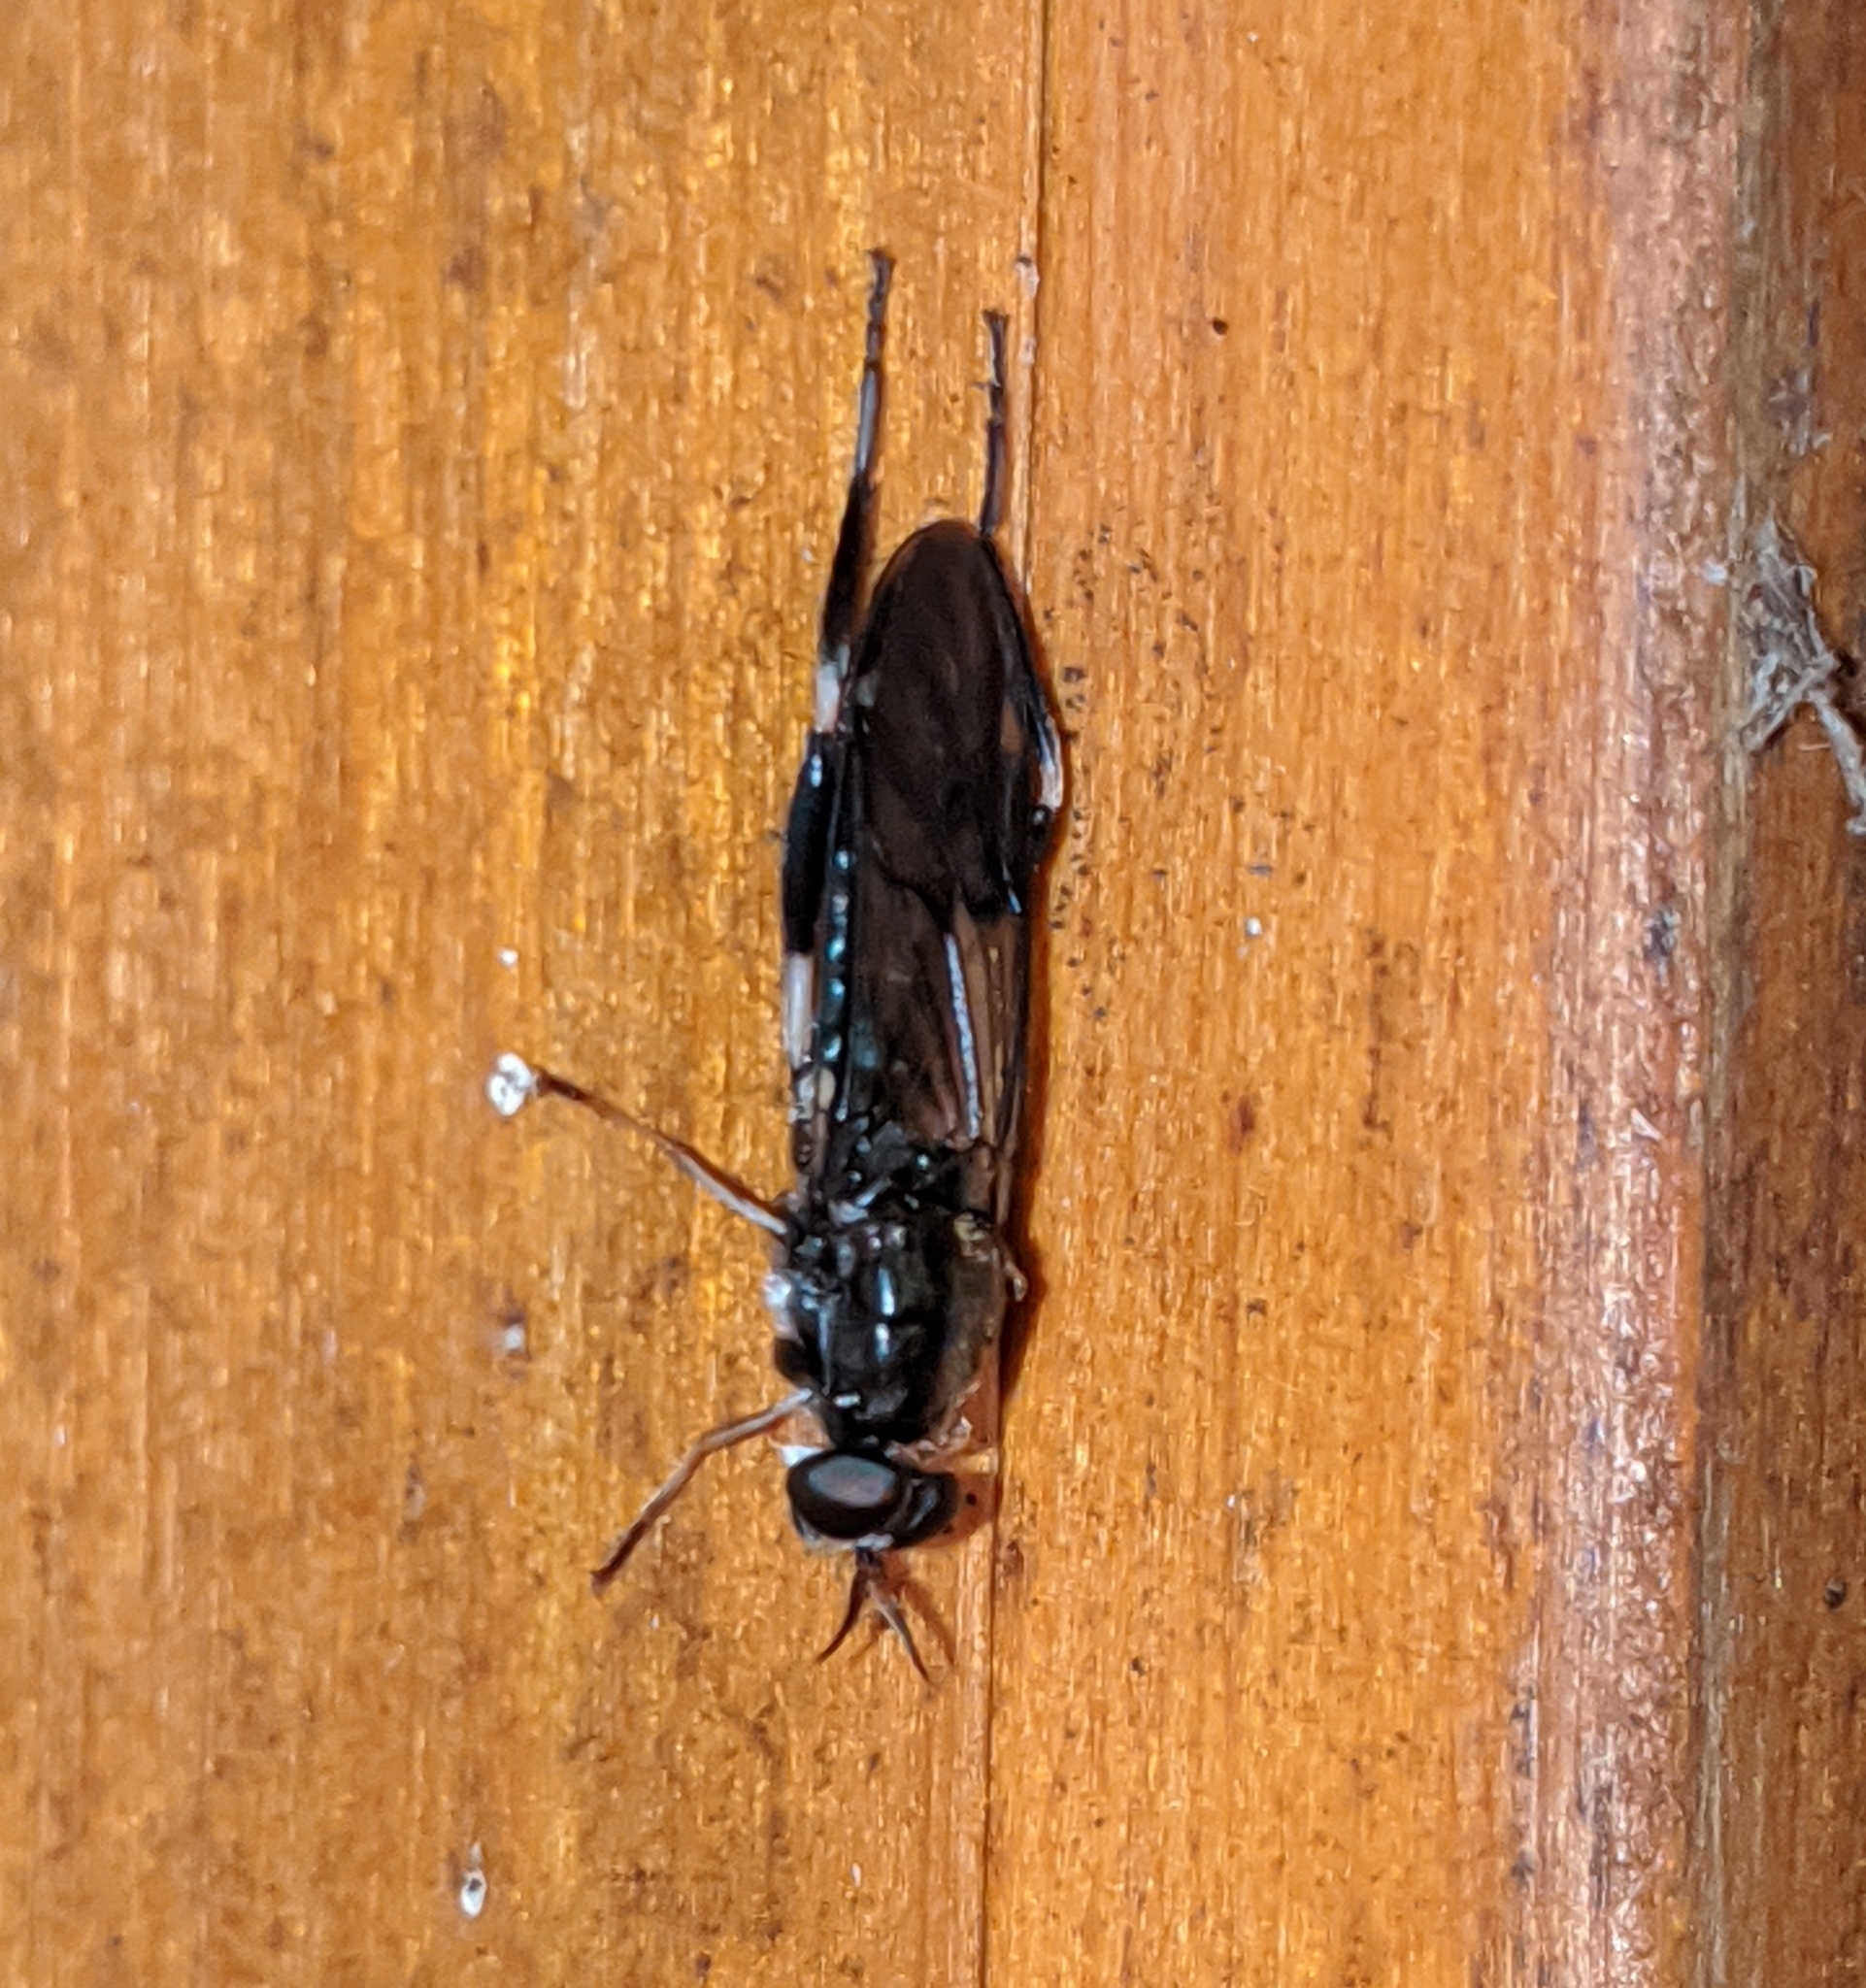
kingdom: Animalia
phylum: Arthropoda
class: Insecta
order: Diptera
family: Stratiomyidae
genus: Exaireta
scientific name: Exaireta spinigera
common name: Blue soldier fly
